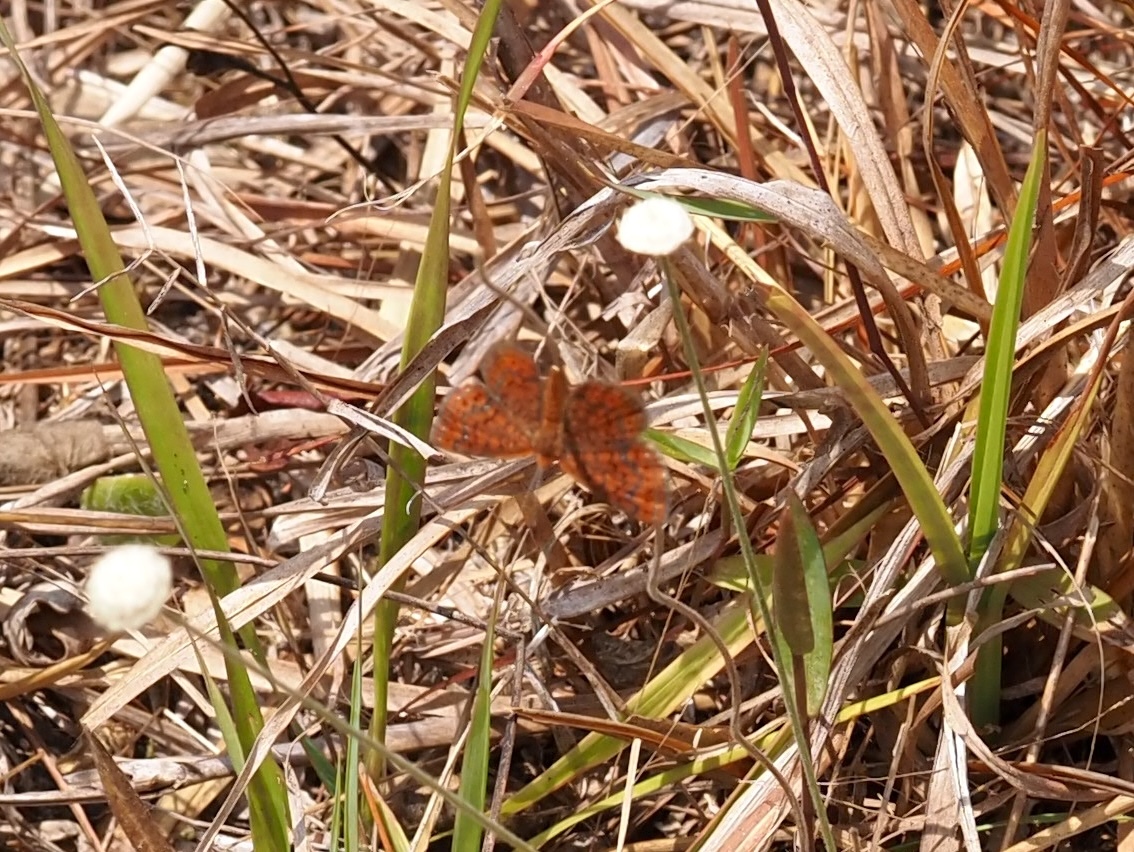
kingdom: Animalia
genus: Calephelis
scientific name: Calephelis virginiensis
